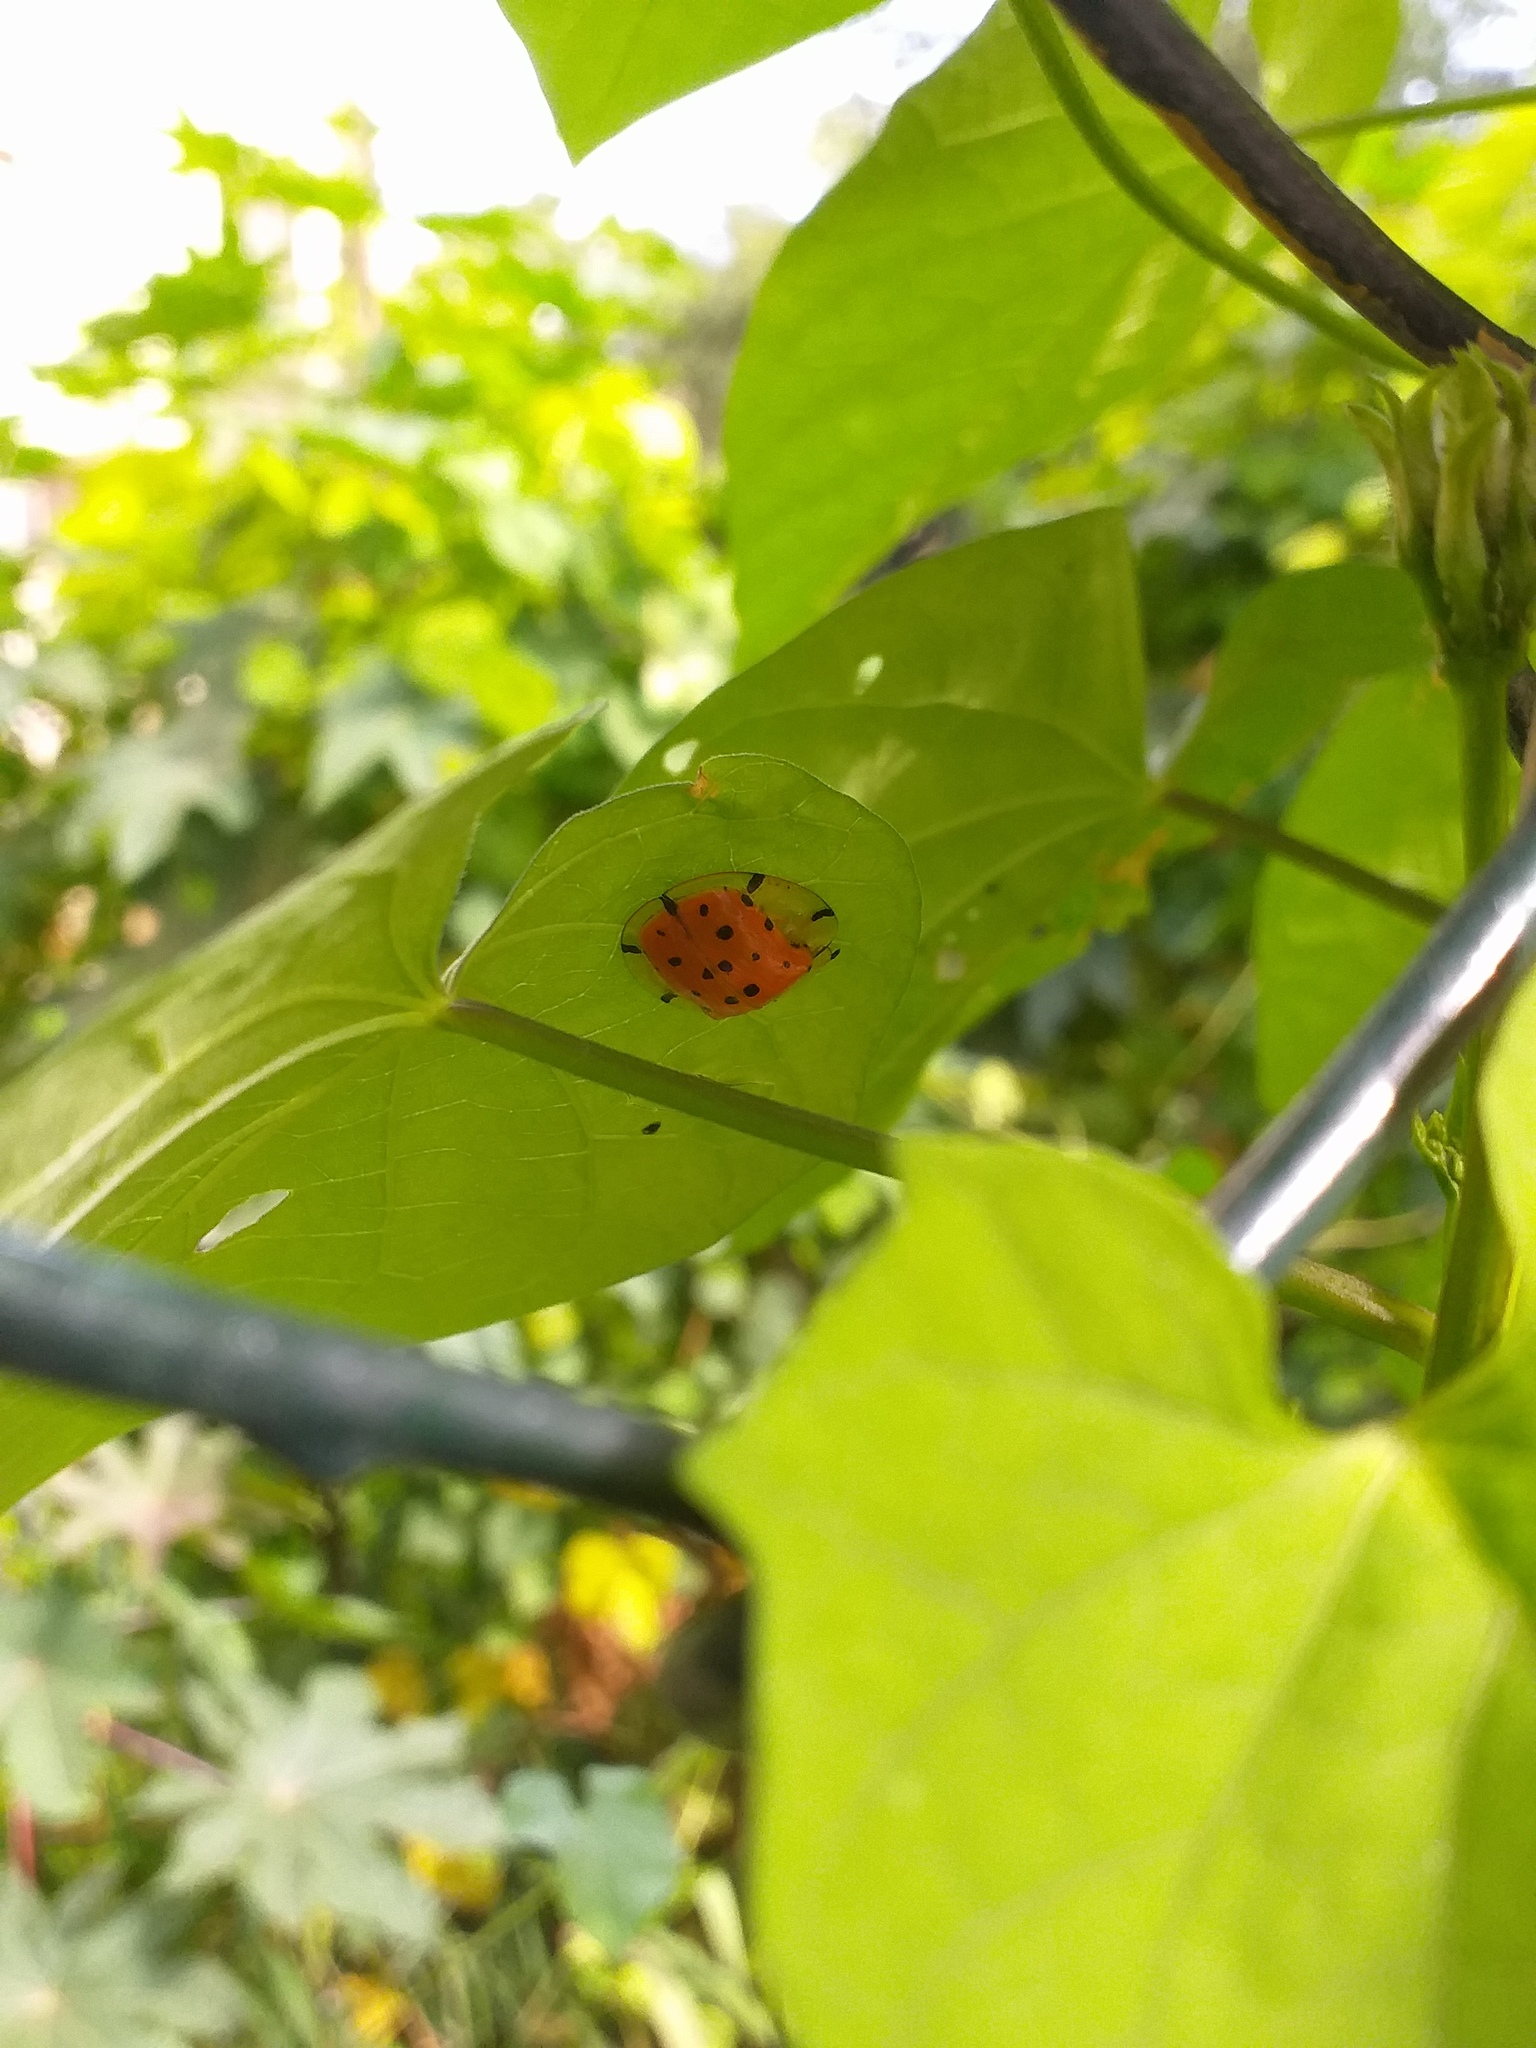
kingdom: Animalia
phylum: Arthropoda
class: Insecta
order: Coleoptera
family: Chrysomelidae
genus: Aspidimorpha
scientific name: Aspidimorpha miliaris
